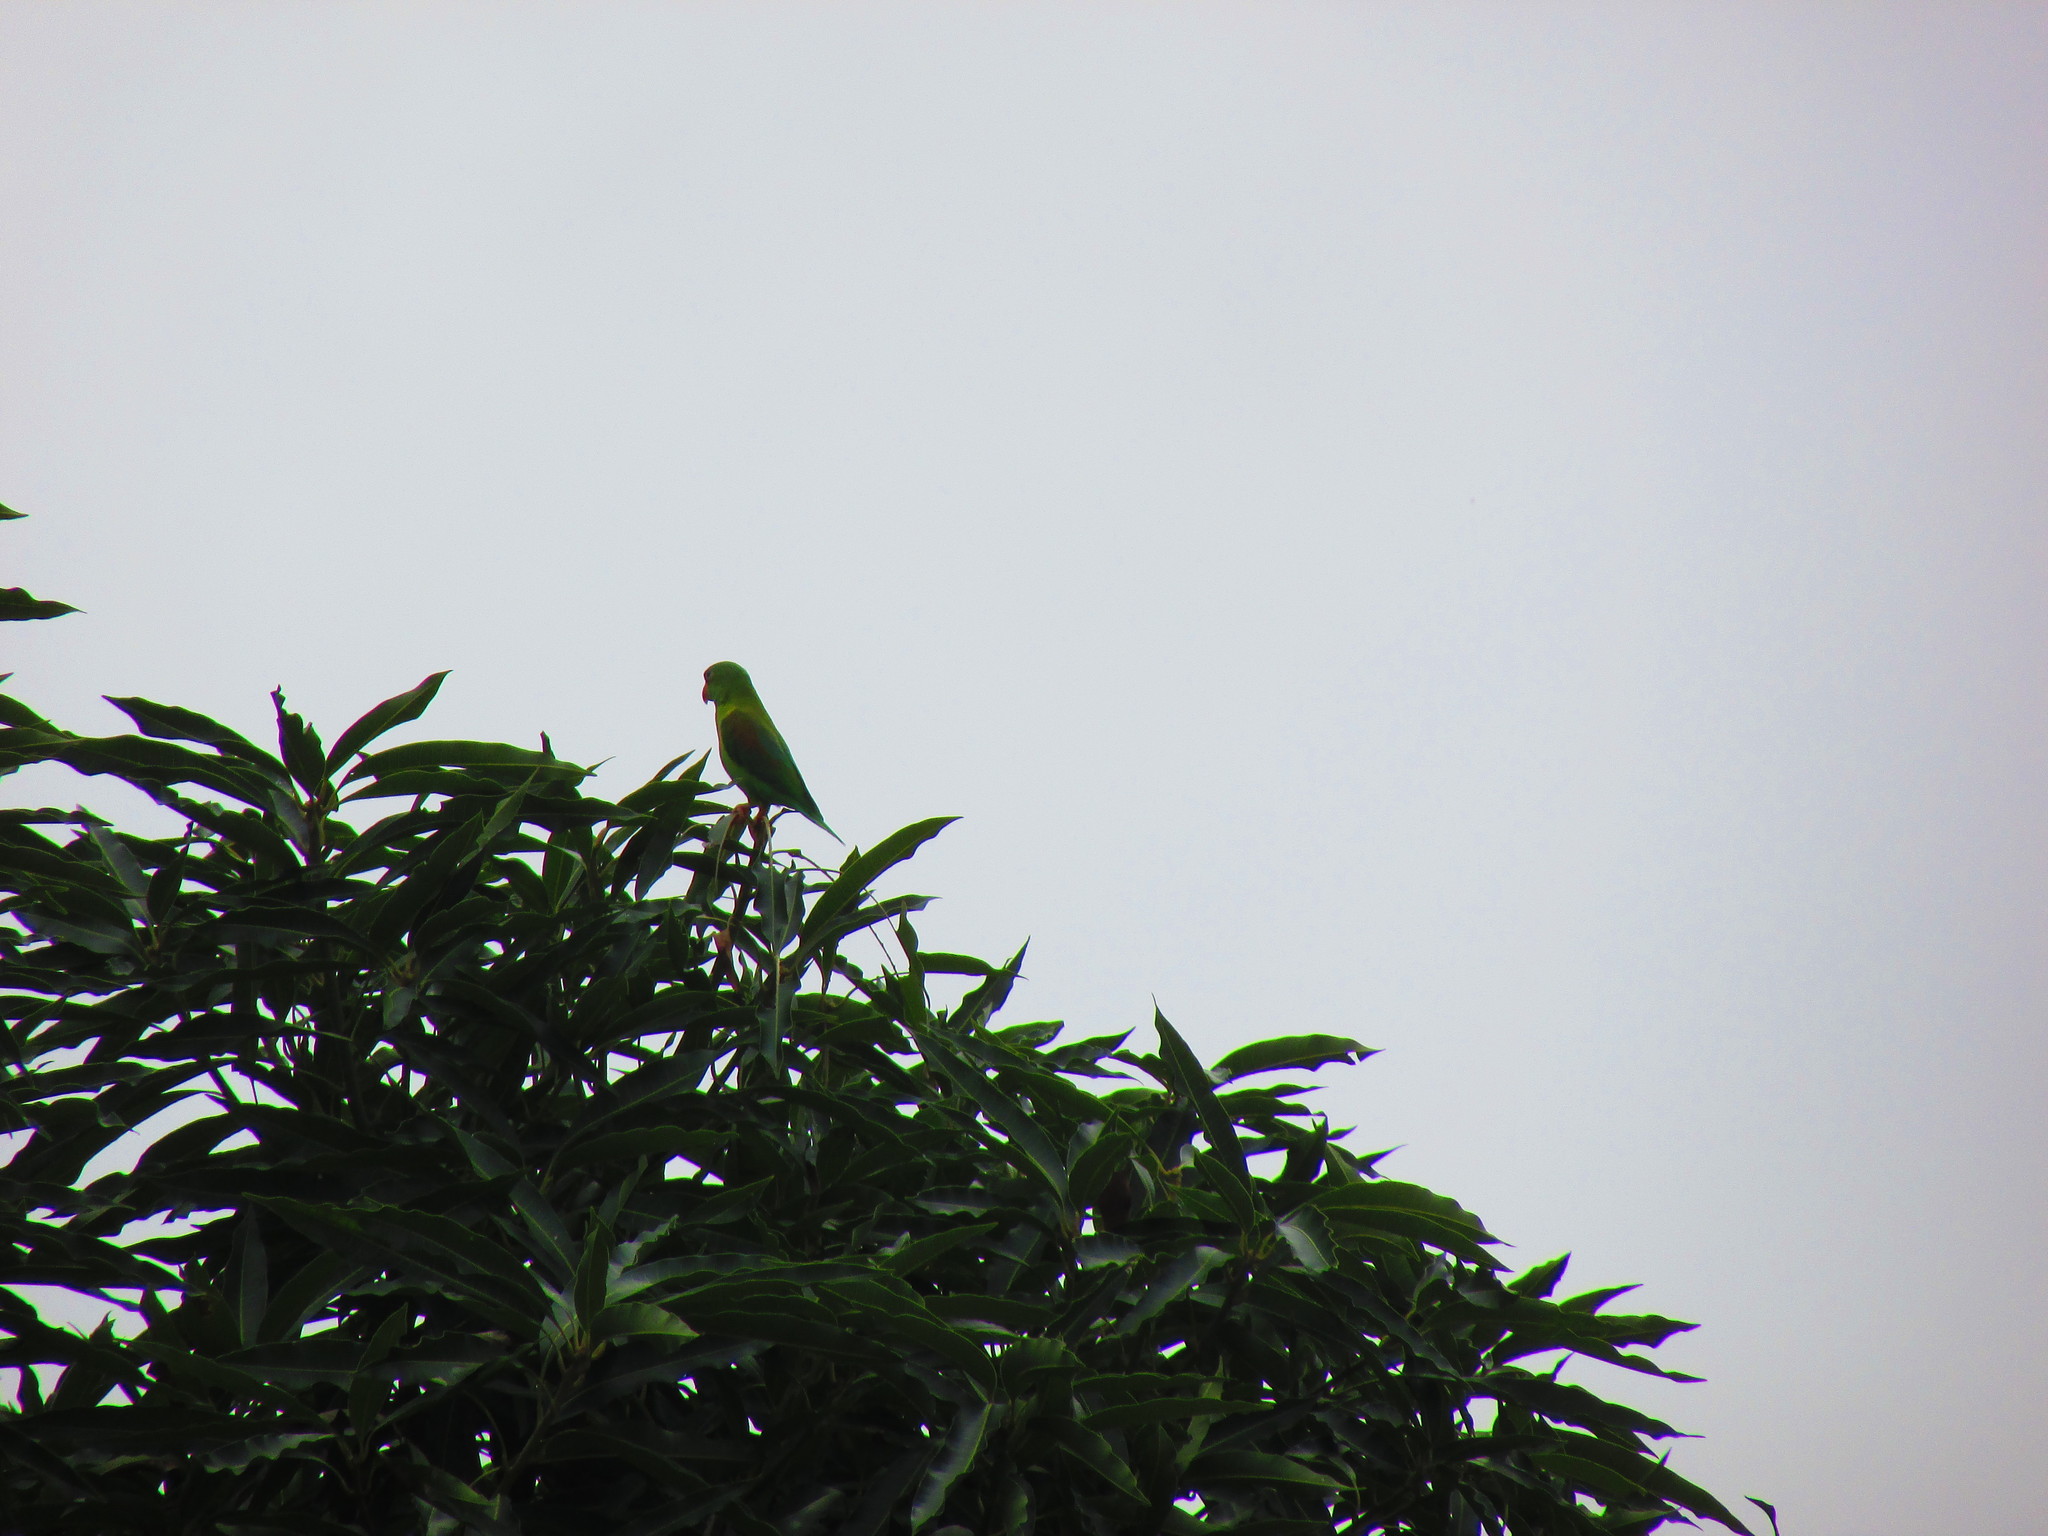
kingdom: Animalia
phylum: Chordata
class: Aves
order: Psittaciformes
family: Psittacidae
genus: Brotogeris
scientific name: Brotogeris jugularis
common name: Orange-chinned parakeet
